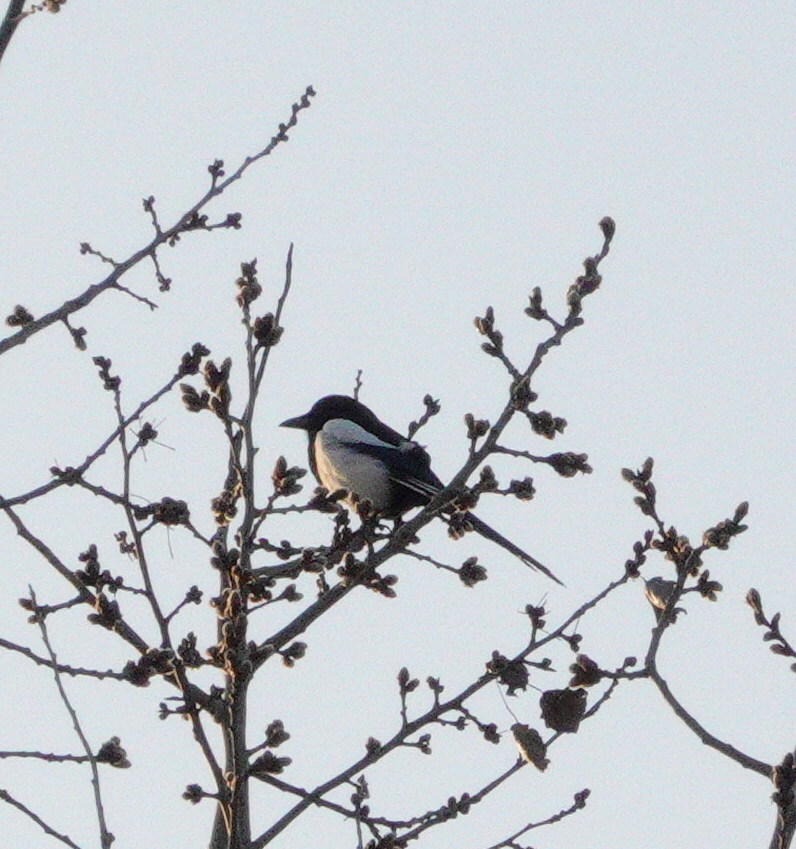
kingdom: Animalia
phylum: Chordata
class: Aves
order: Passeriformes
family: Corvidae
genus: Pica
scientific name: Pica pica
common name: Eurasian magpie
